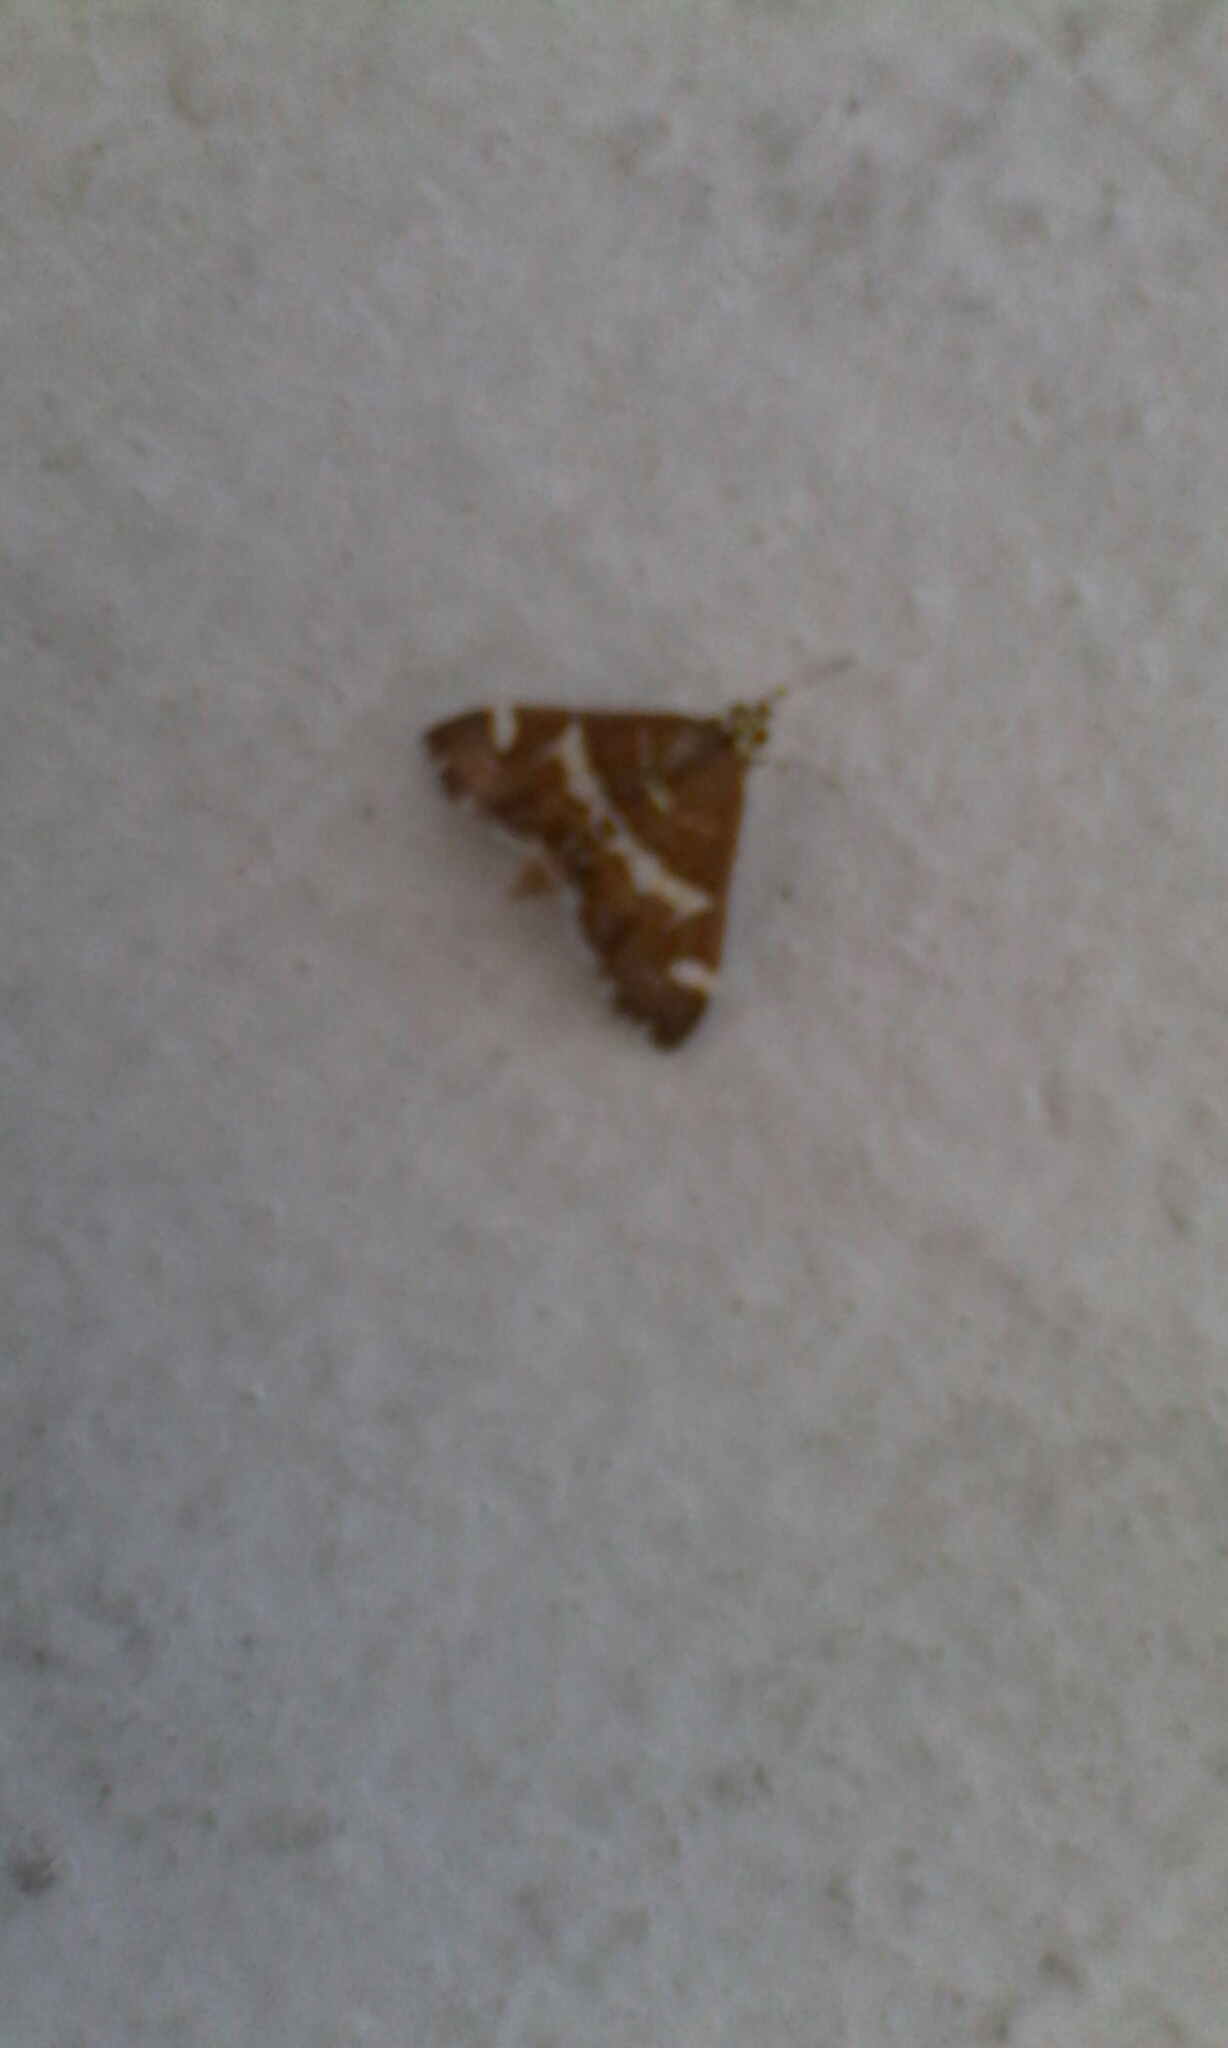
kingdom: Animalia
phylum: Arthropoda
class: Insecta
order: Lepidoptera
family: Crambidae
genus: Spoladea
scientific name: Spoladea recurvalis
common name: Beet webworm moth
